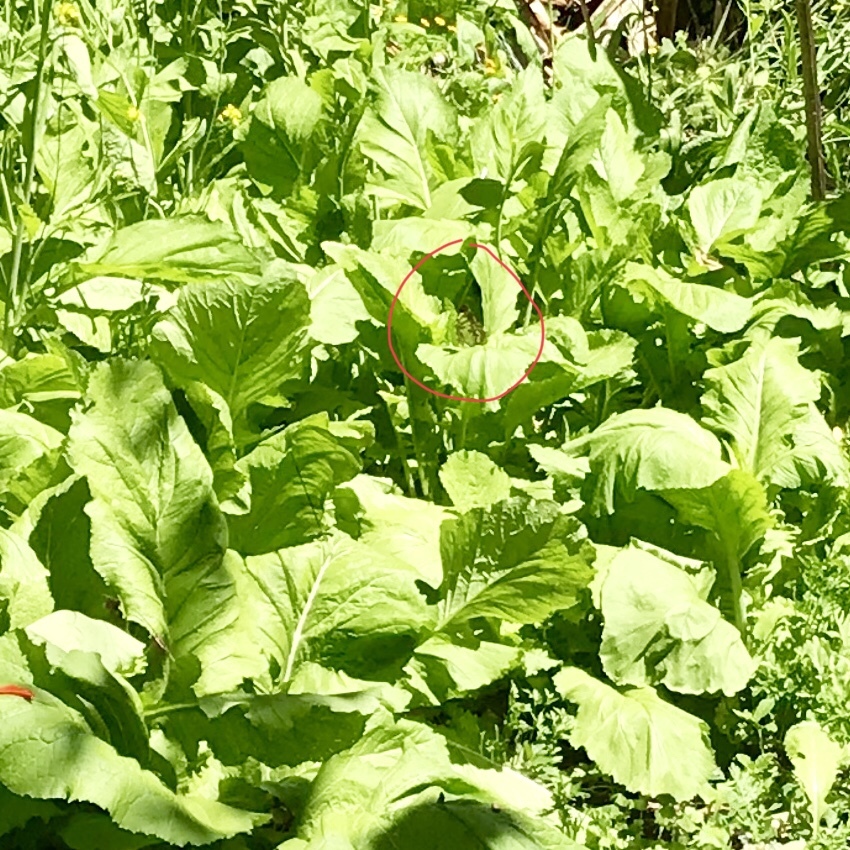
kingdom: Animalia
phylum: Arthropoda
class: Insecta
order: Lepidoptera
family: Nymphalidae
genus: Siproeta
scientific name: Siproeta stelenes
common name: Malachite
